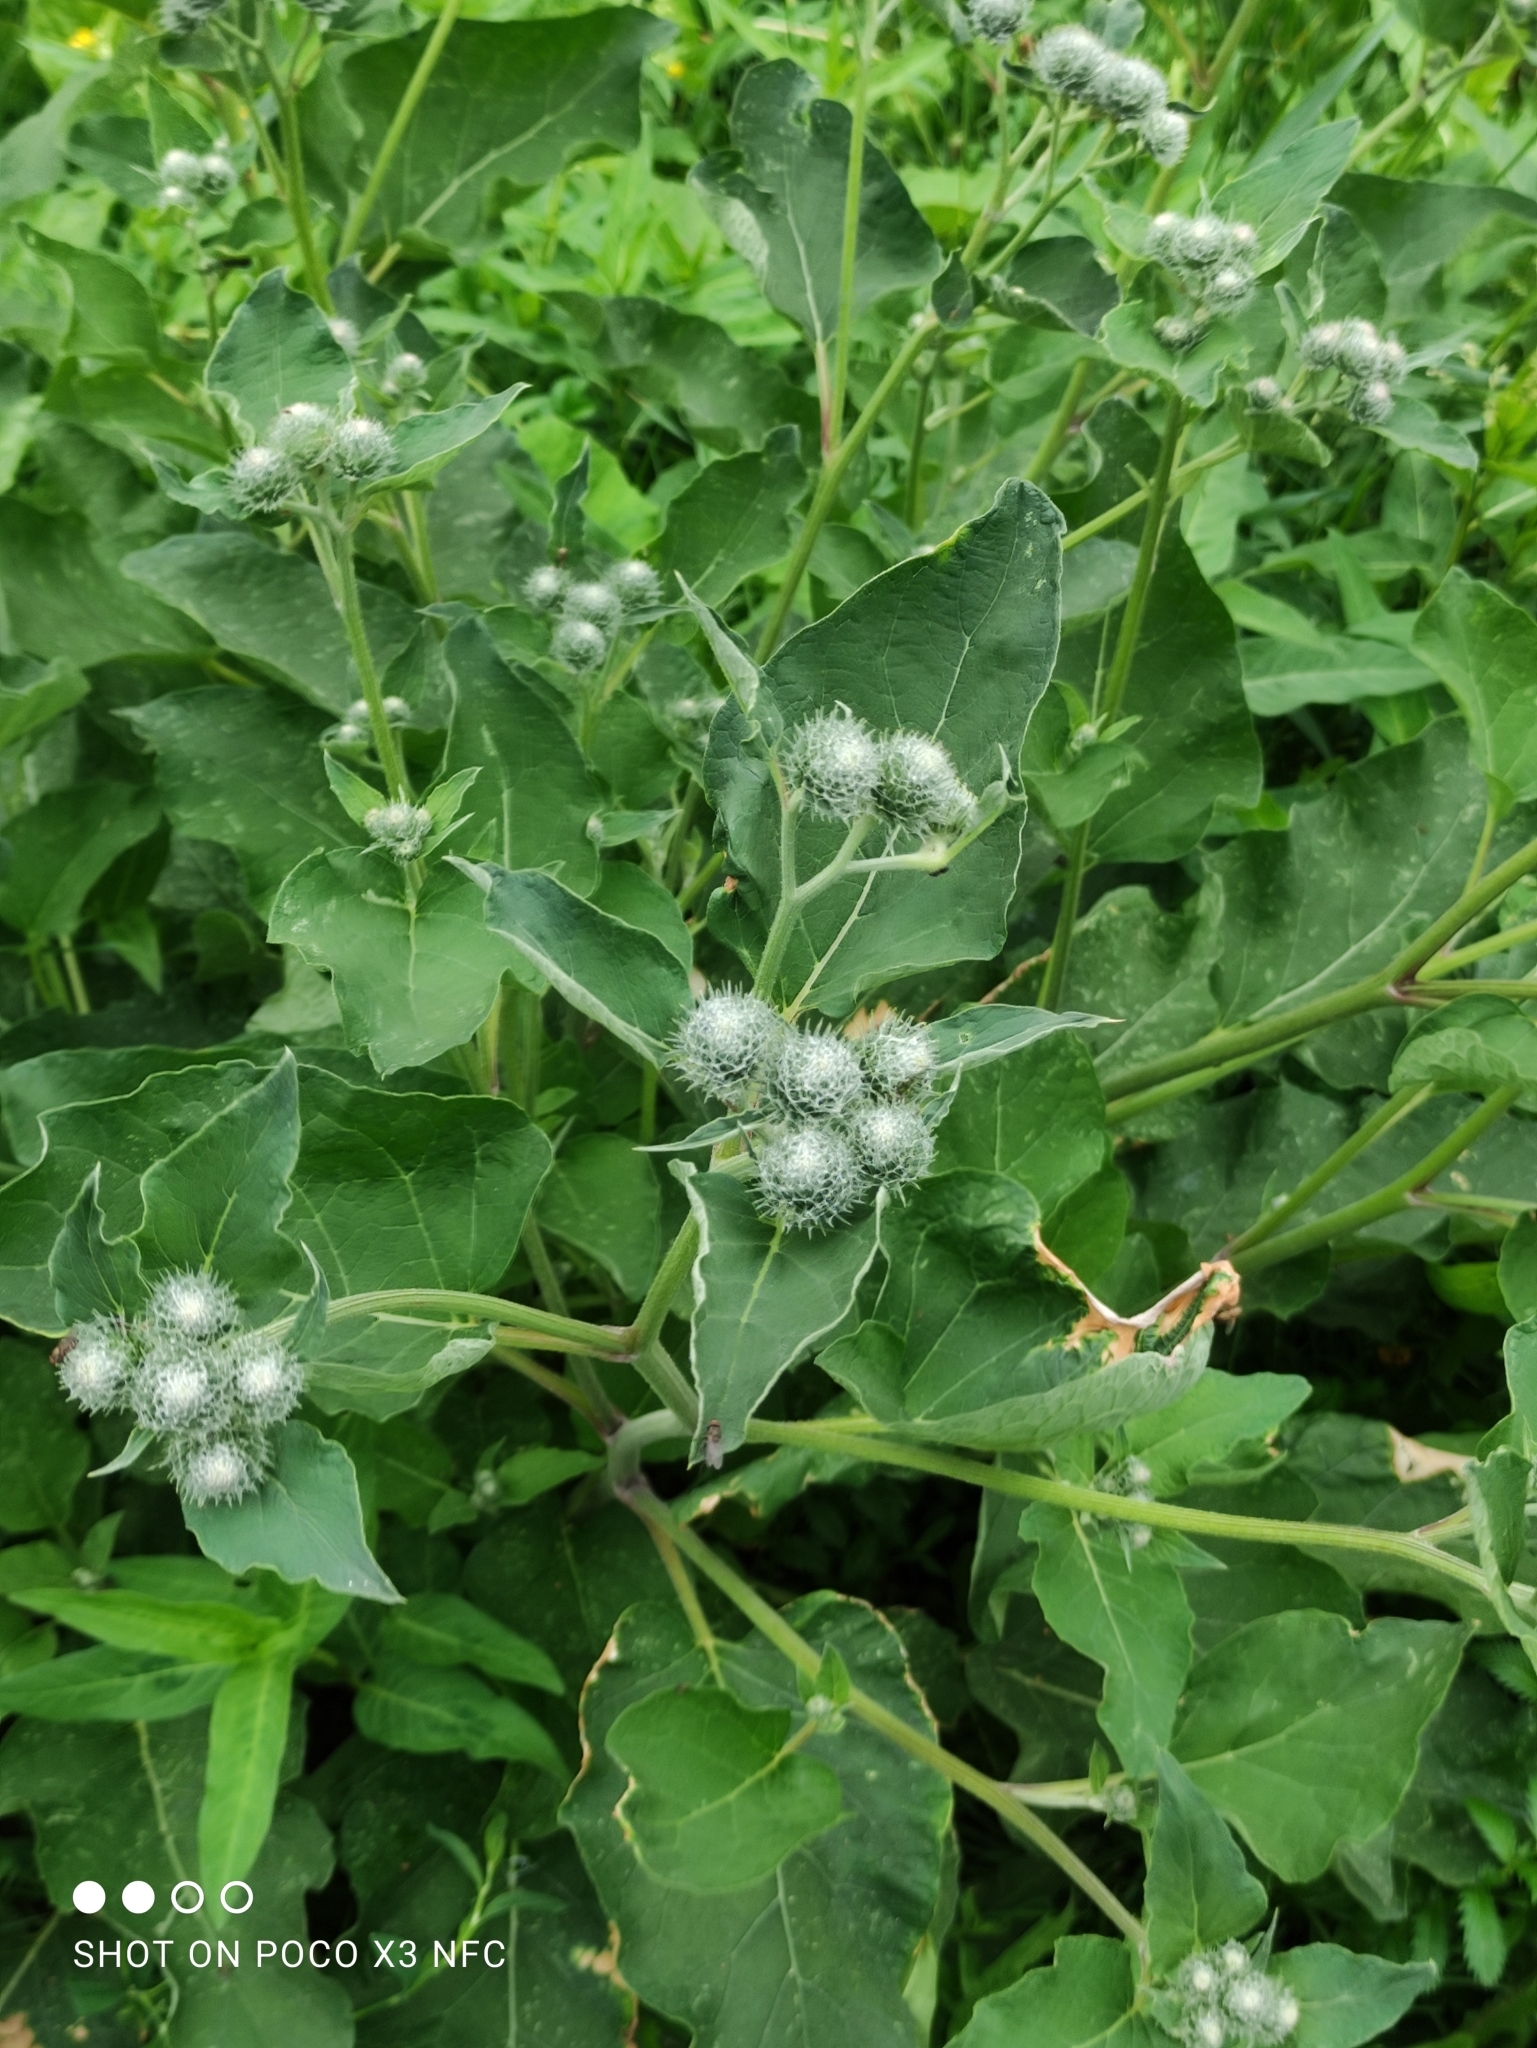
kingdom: Plantae
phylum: Tracheophyta
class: Magnoliopsida
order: Asterales
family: Asteraceae
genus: Arctium
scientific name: Arctium tomentosum
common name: Woolly burdock
